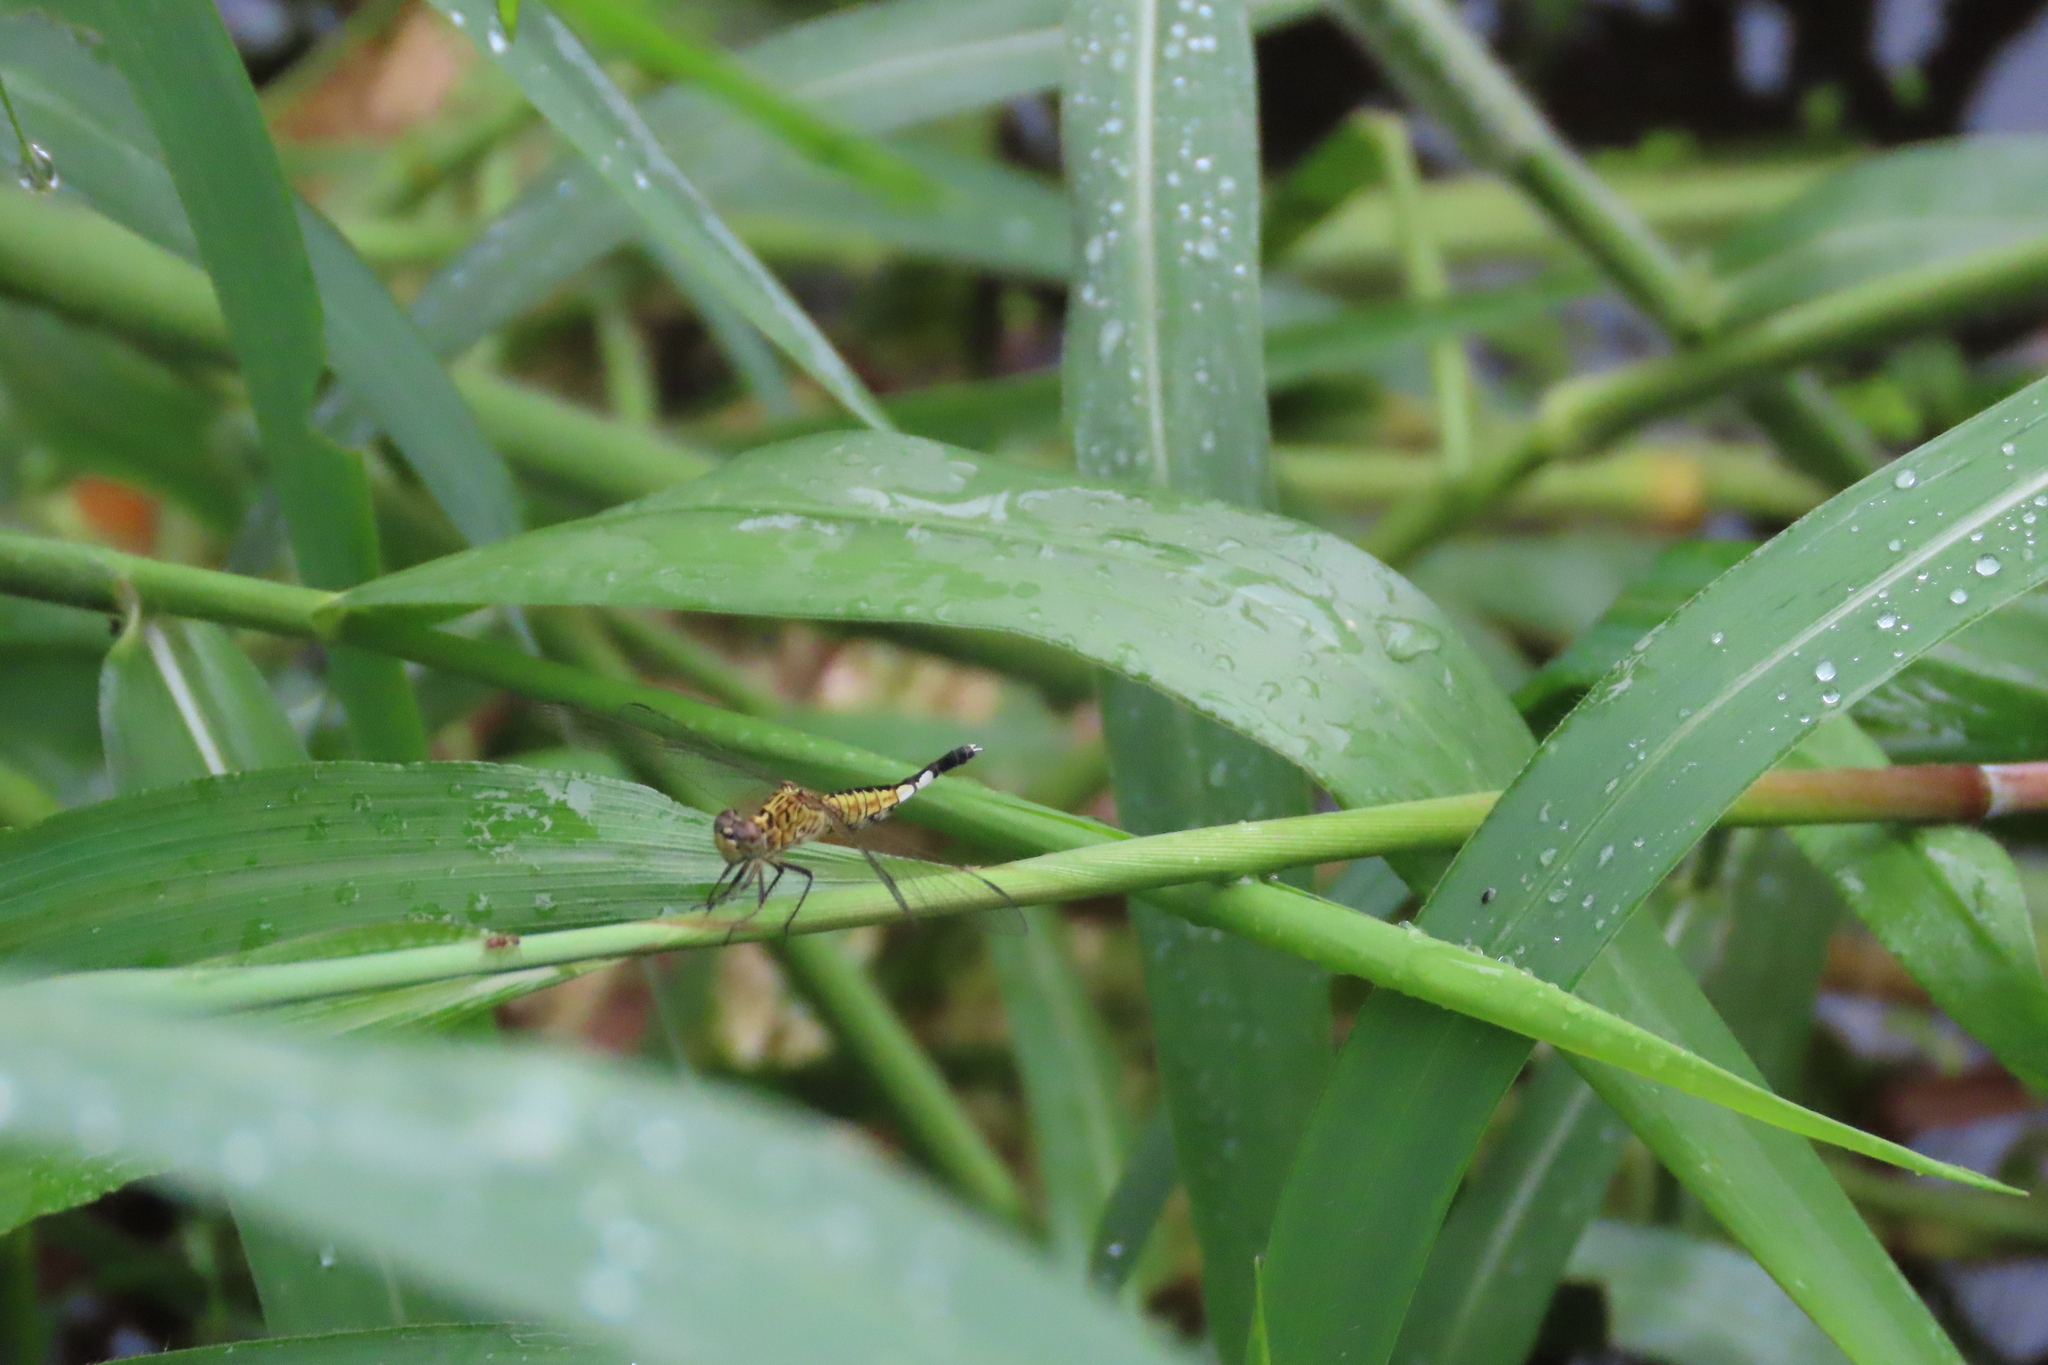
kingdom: Animalia
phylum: Arthropoda
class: Insecta
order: Odonata
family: Libellulidae
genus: Acisoma
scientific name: Acisoma panorpoides
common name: Asian pintail
